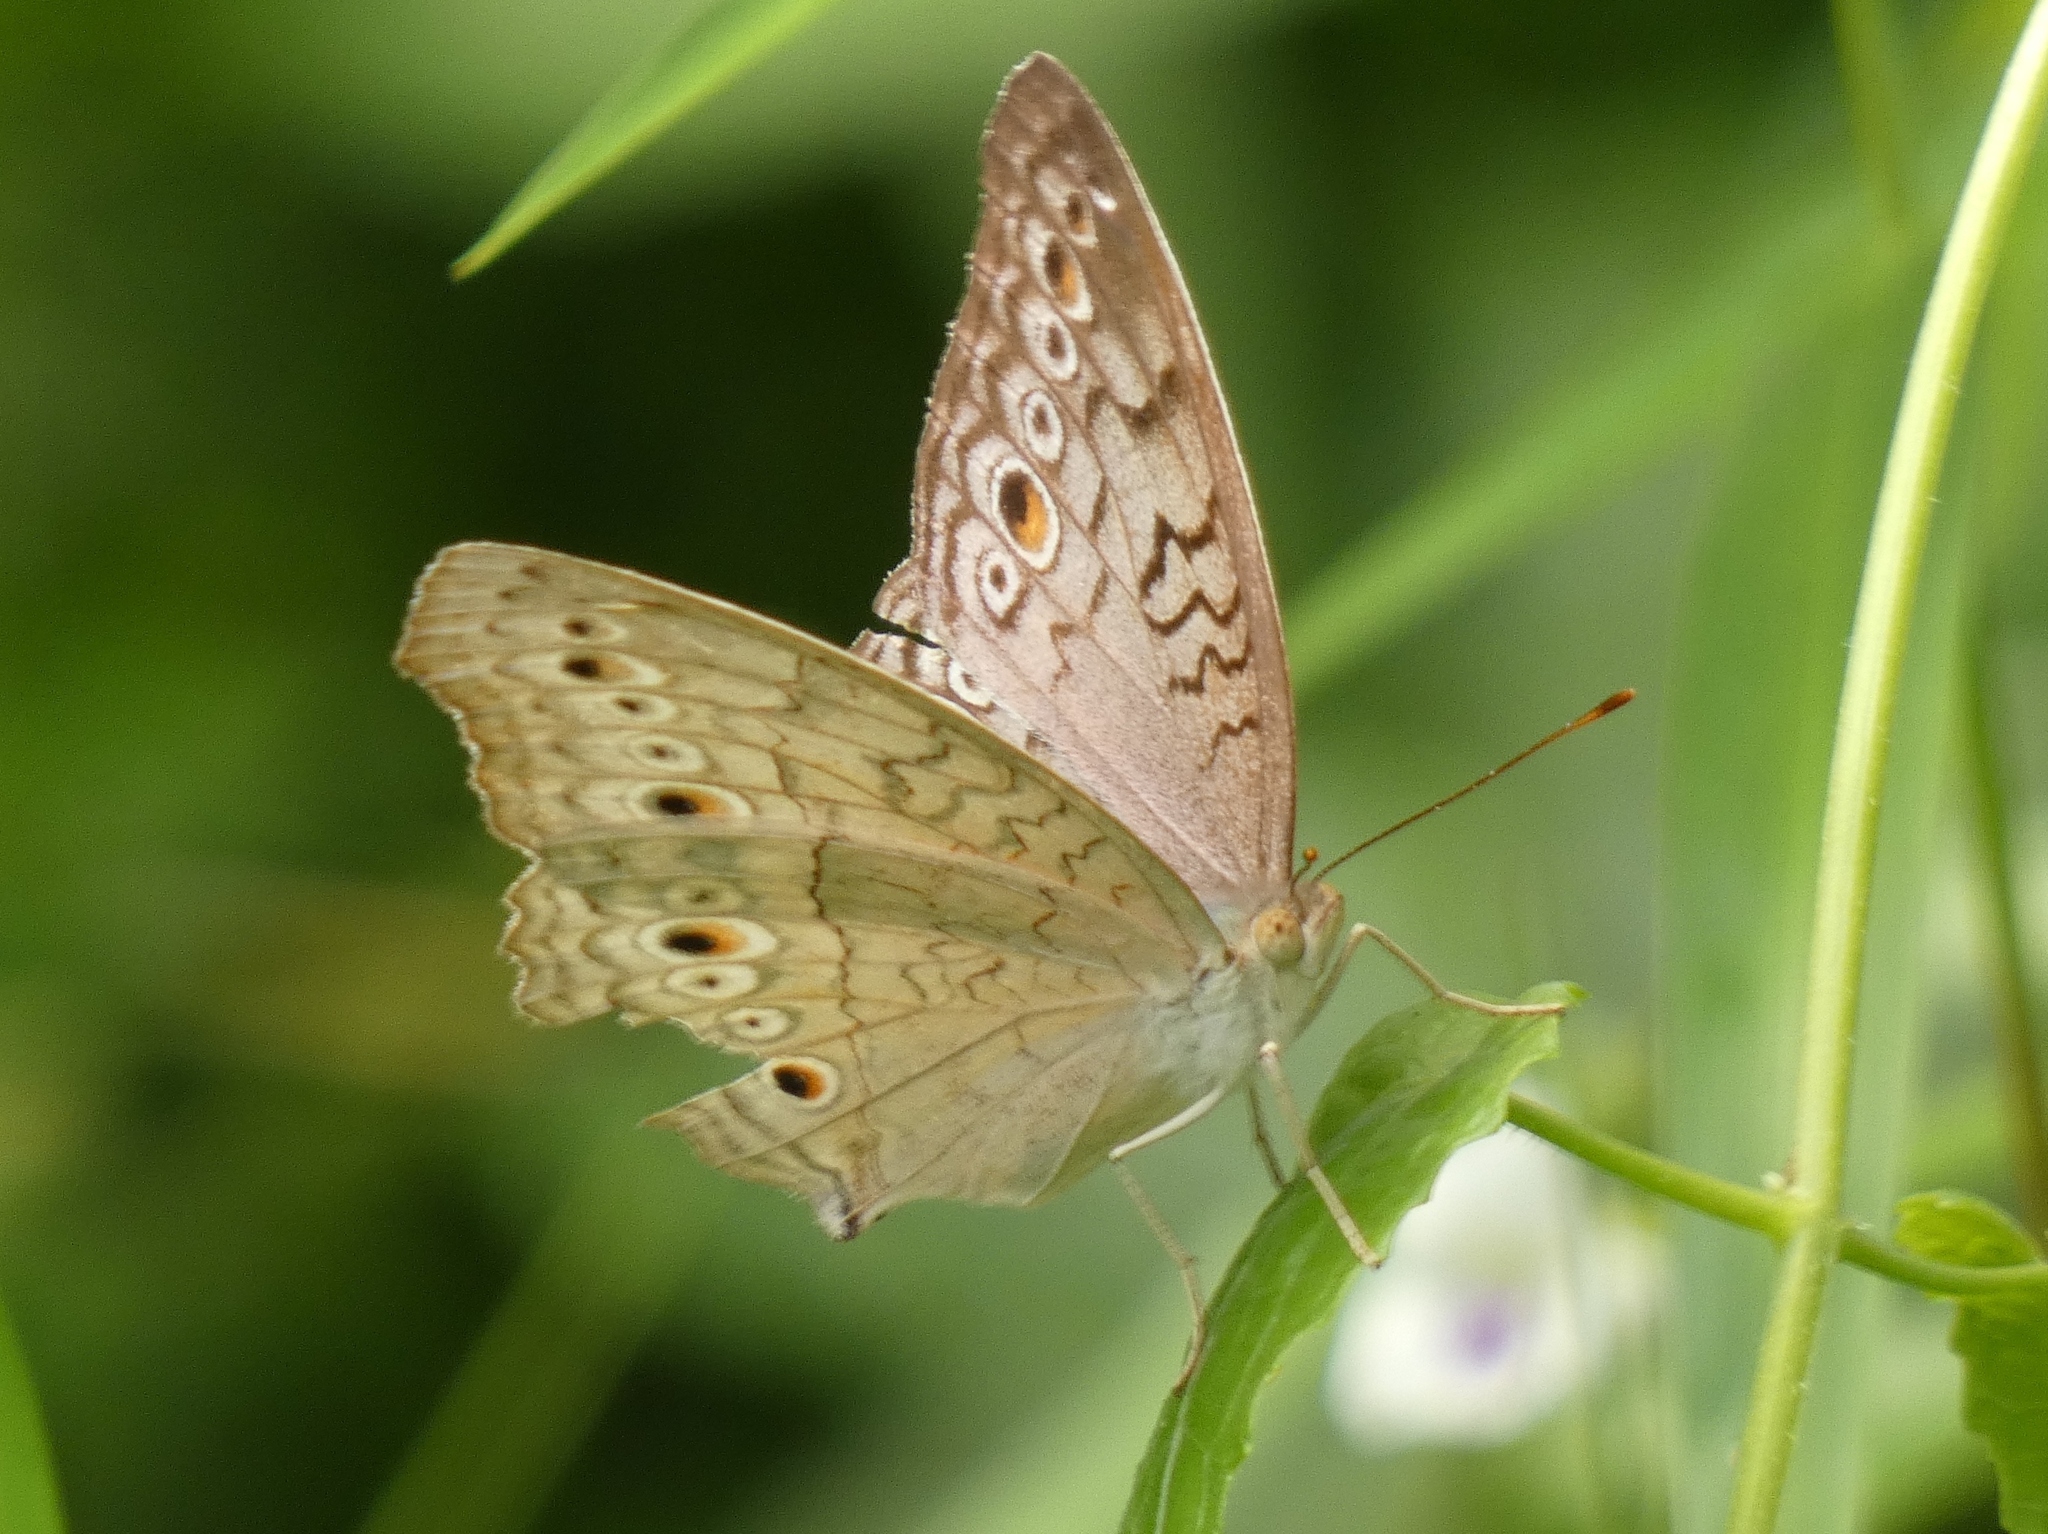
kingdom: Animalia
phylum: Arthropoda
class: Insecta
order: Lepidoptera
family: Nymphalidae
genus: Junonia
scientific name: Junonia atlites
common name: Grey pansy
